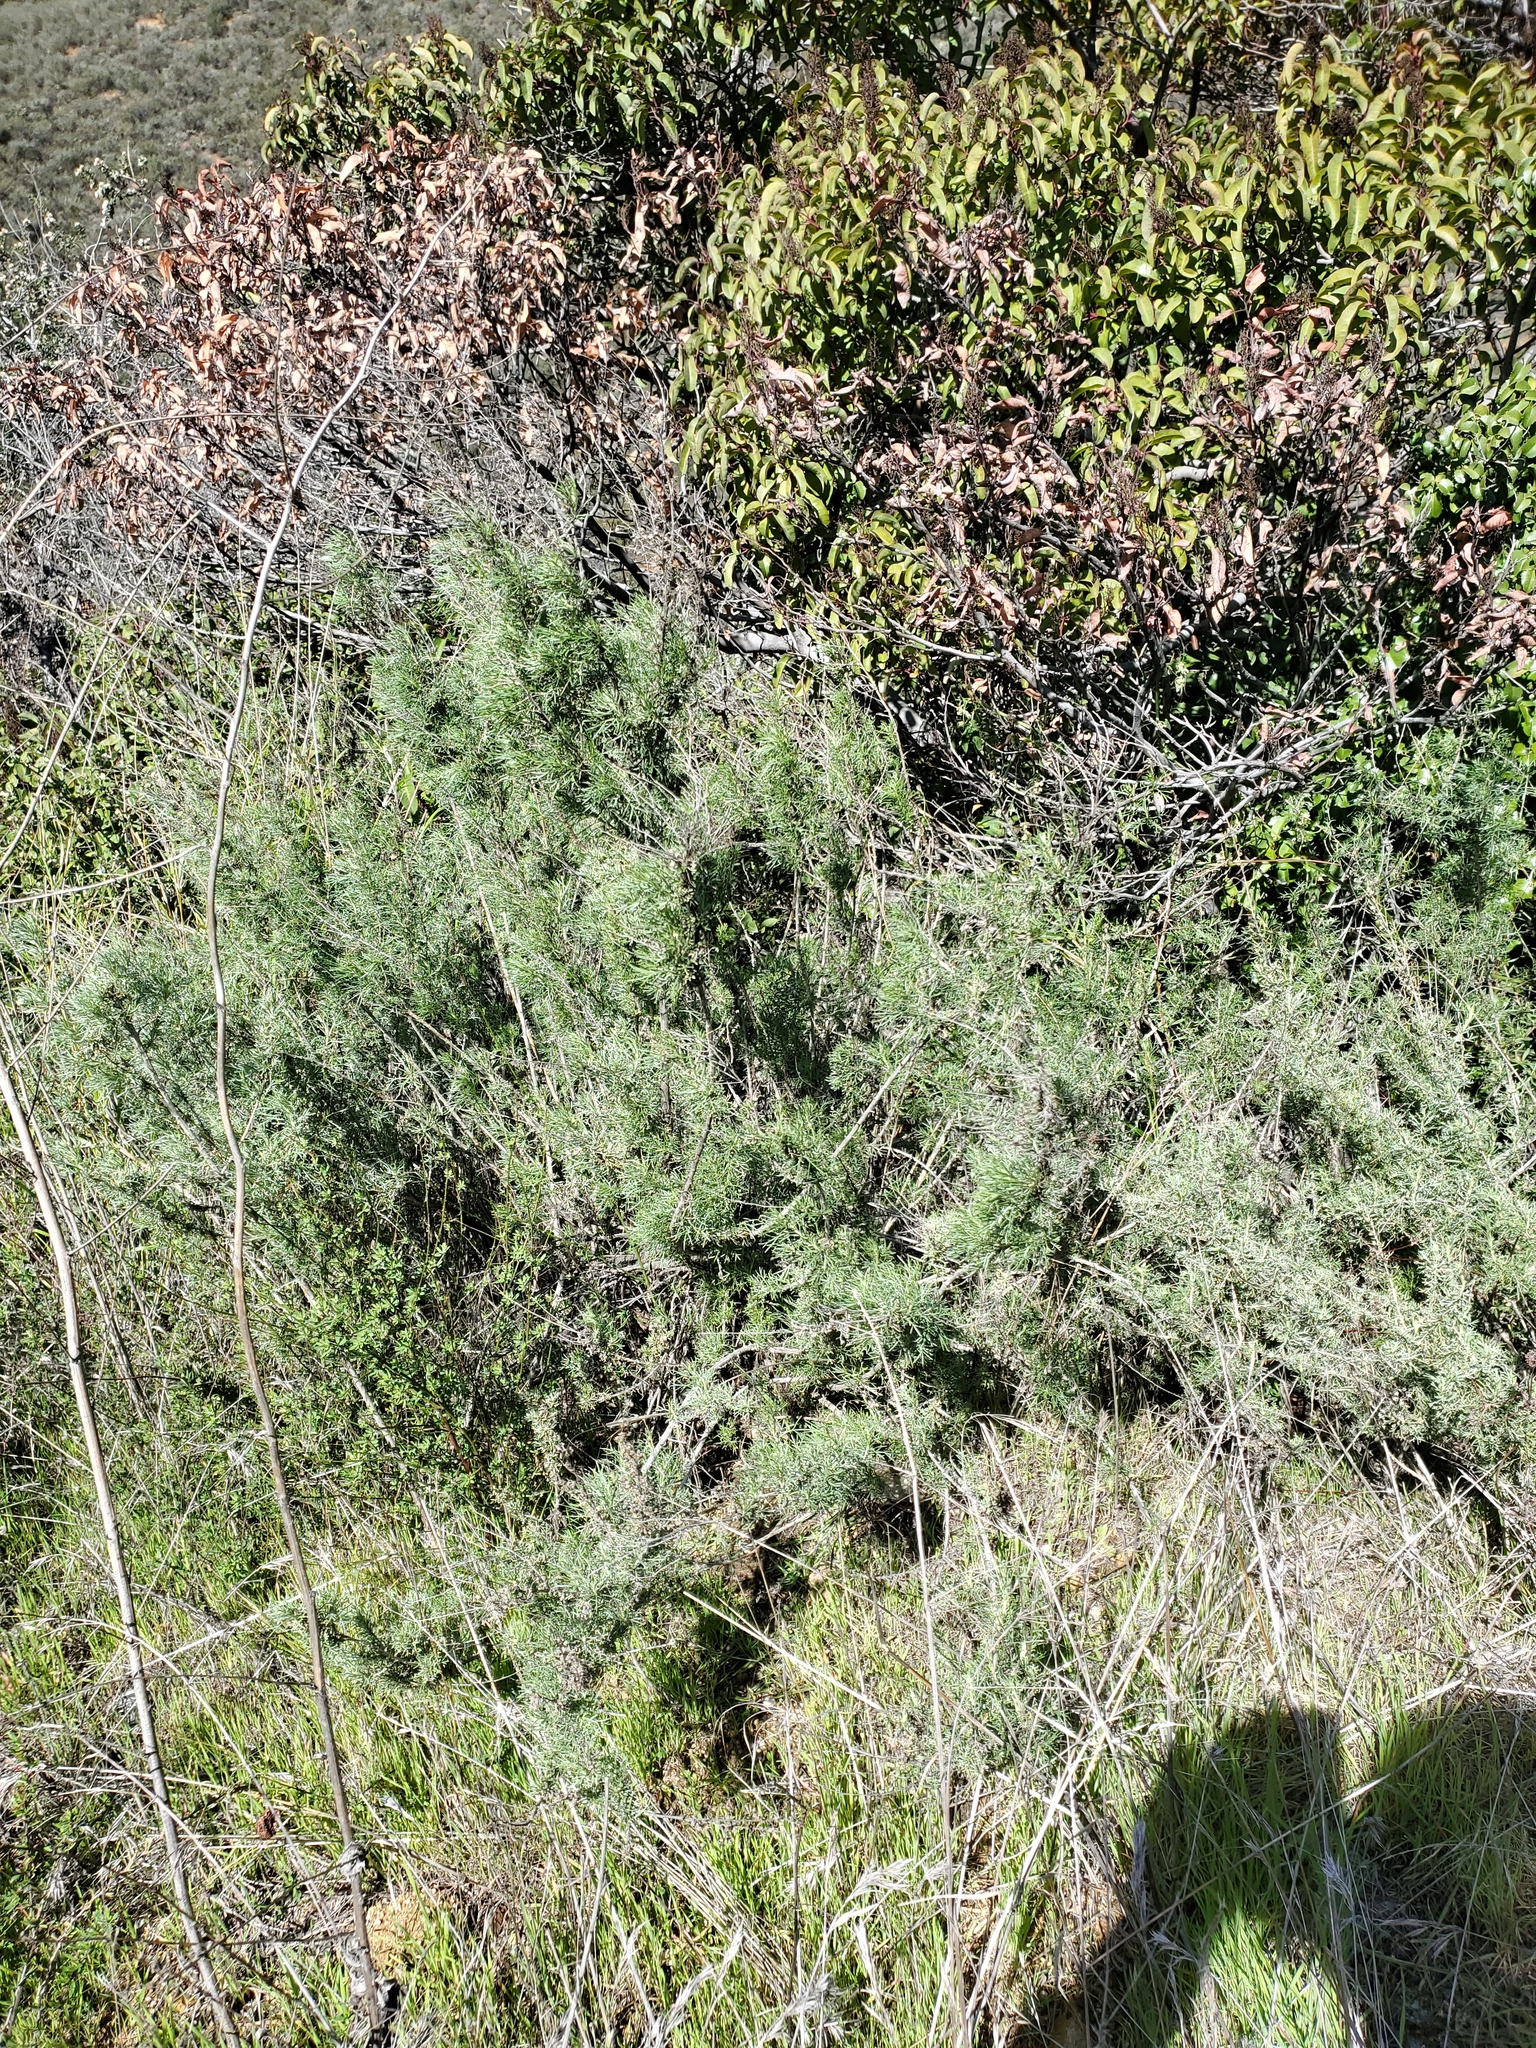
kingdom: Plantae
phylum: Tracheophyta
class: Magnoliopsida
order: Asterales
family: Asteraceae
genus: Artemisia
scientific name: Artemisia californica
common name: California sagebrush
